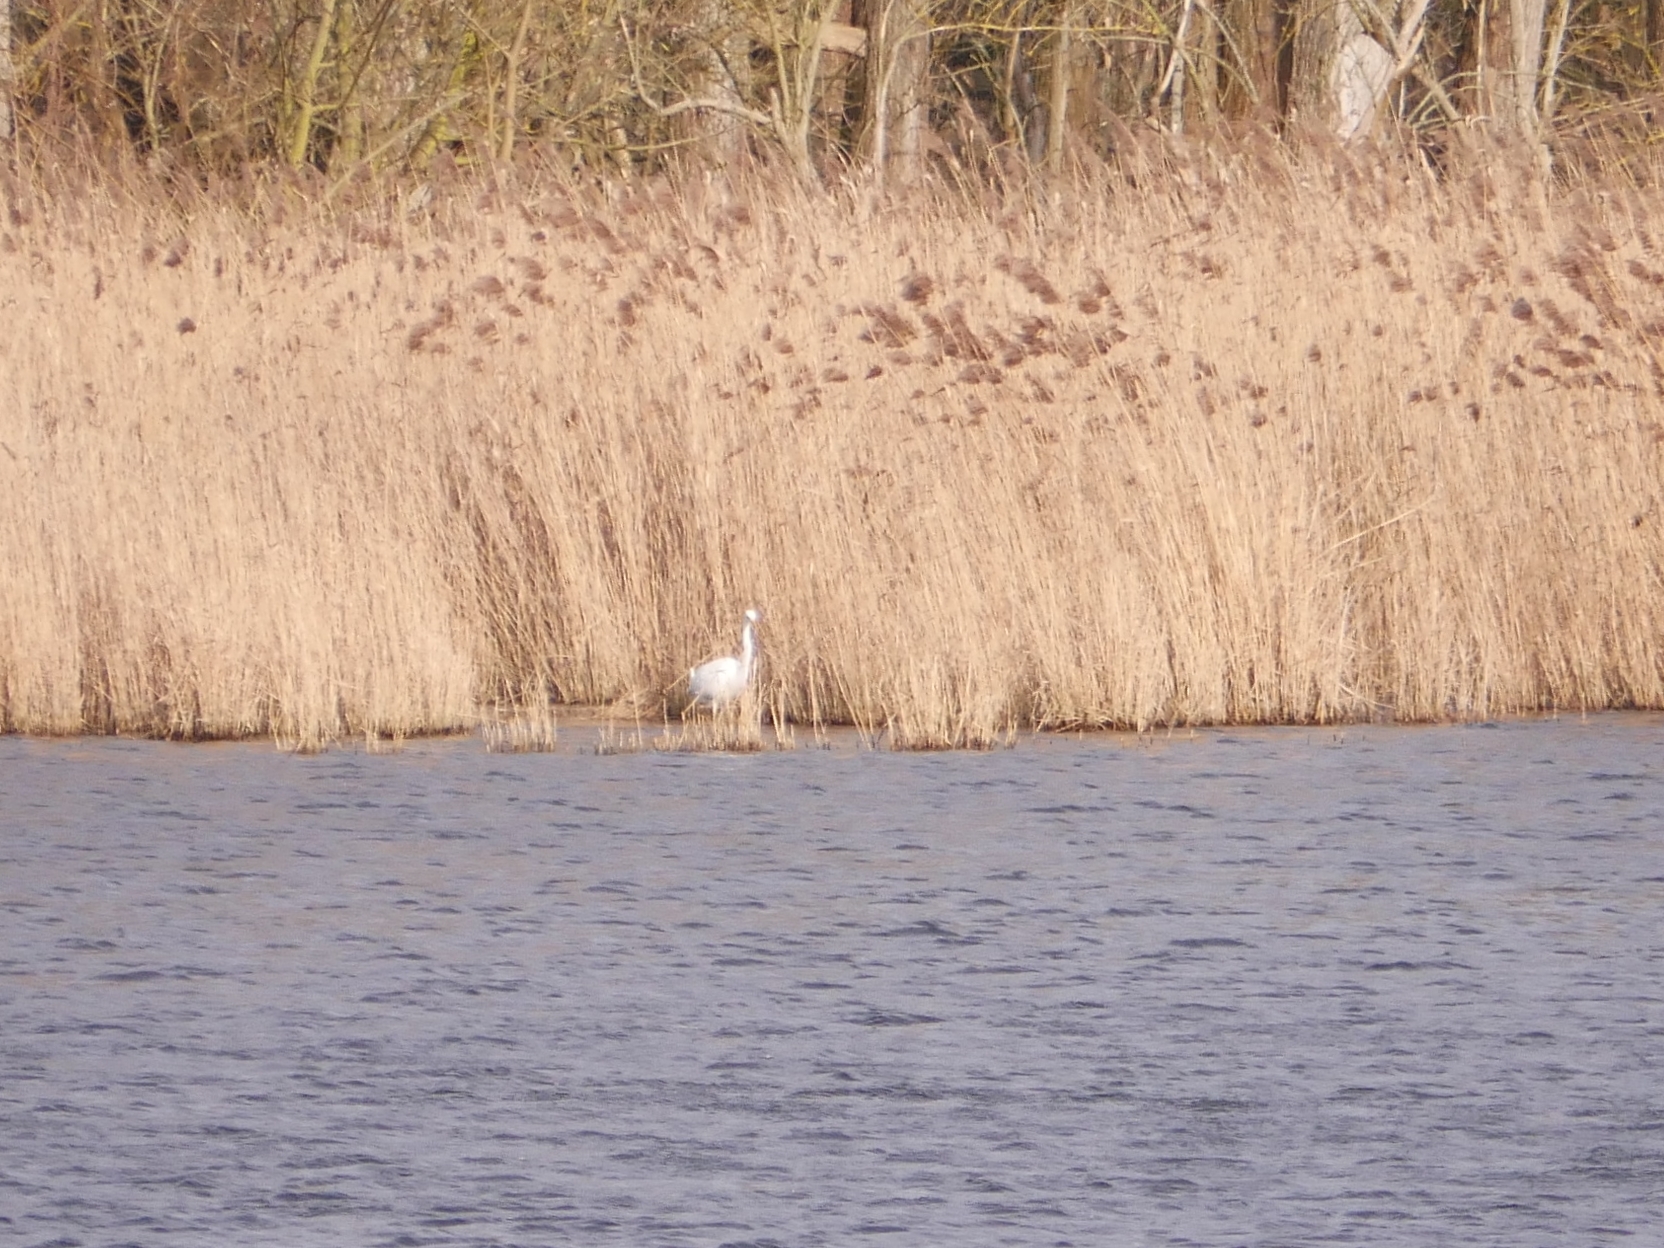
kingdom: Animalia
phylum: Chordata
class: Aves
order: Pelecaniformes
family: Ardeidae
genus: Ardea
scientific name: Ardea alba
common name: Great egret
